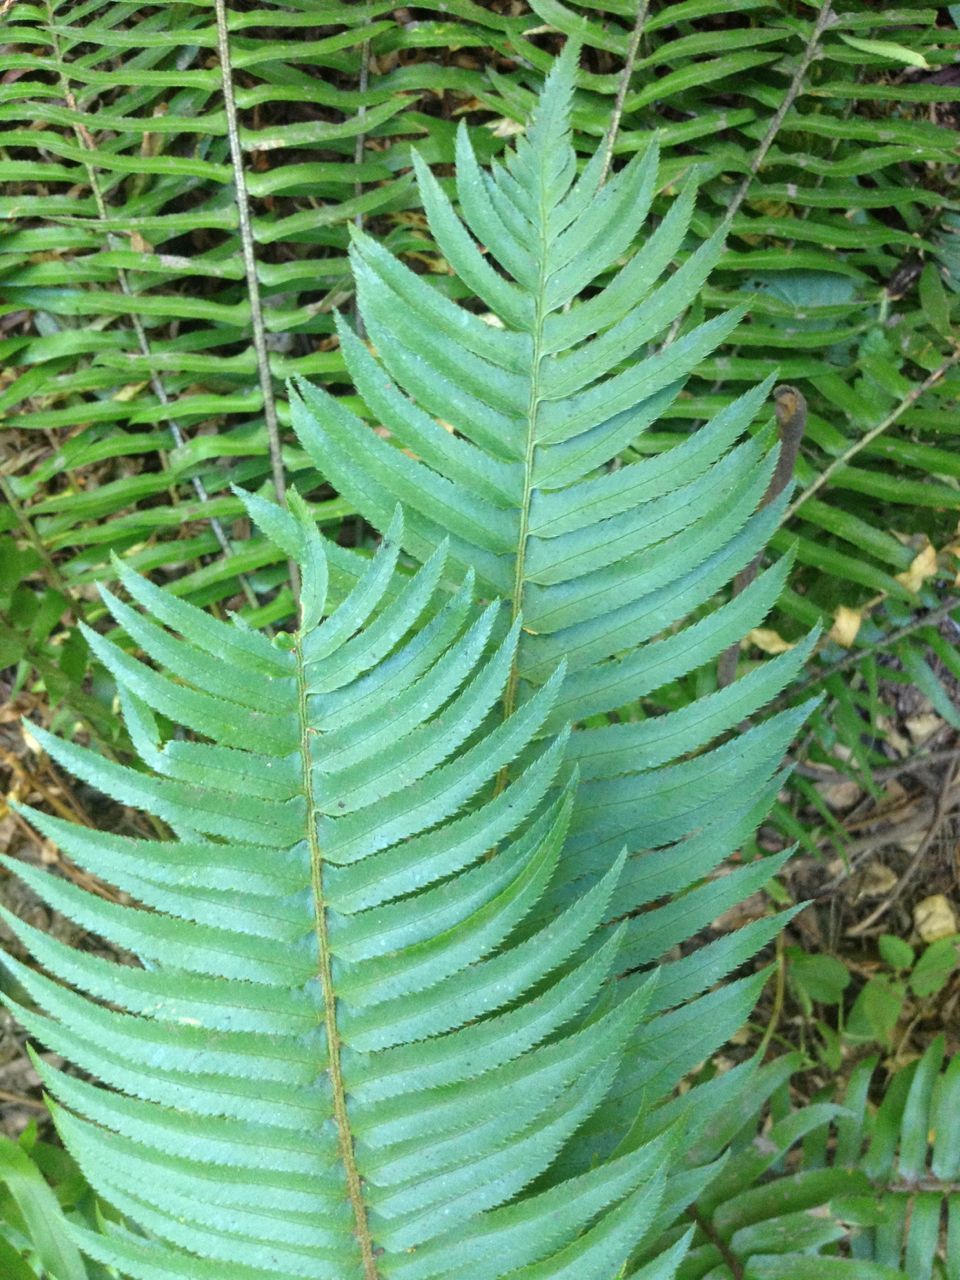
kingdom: Plantae
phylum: Tracheophyta
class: Polypodiopsida
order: Polypodiales
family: Dryopteridaceae
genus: Polystichum
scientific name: Polystichum munitum
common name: Western sword-fern
